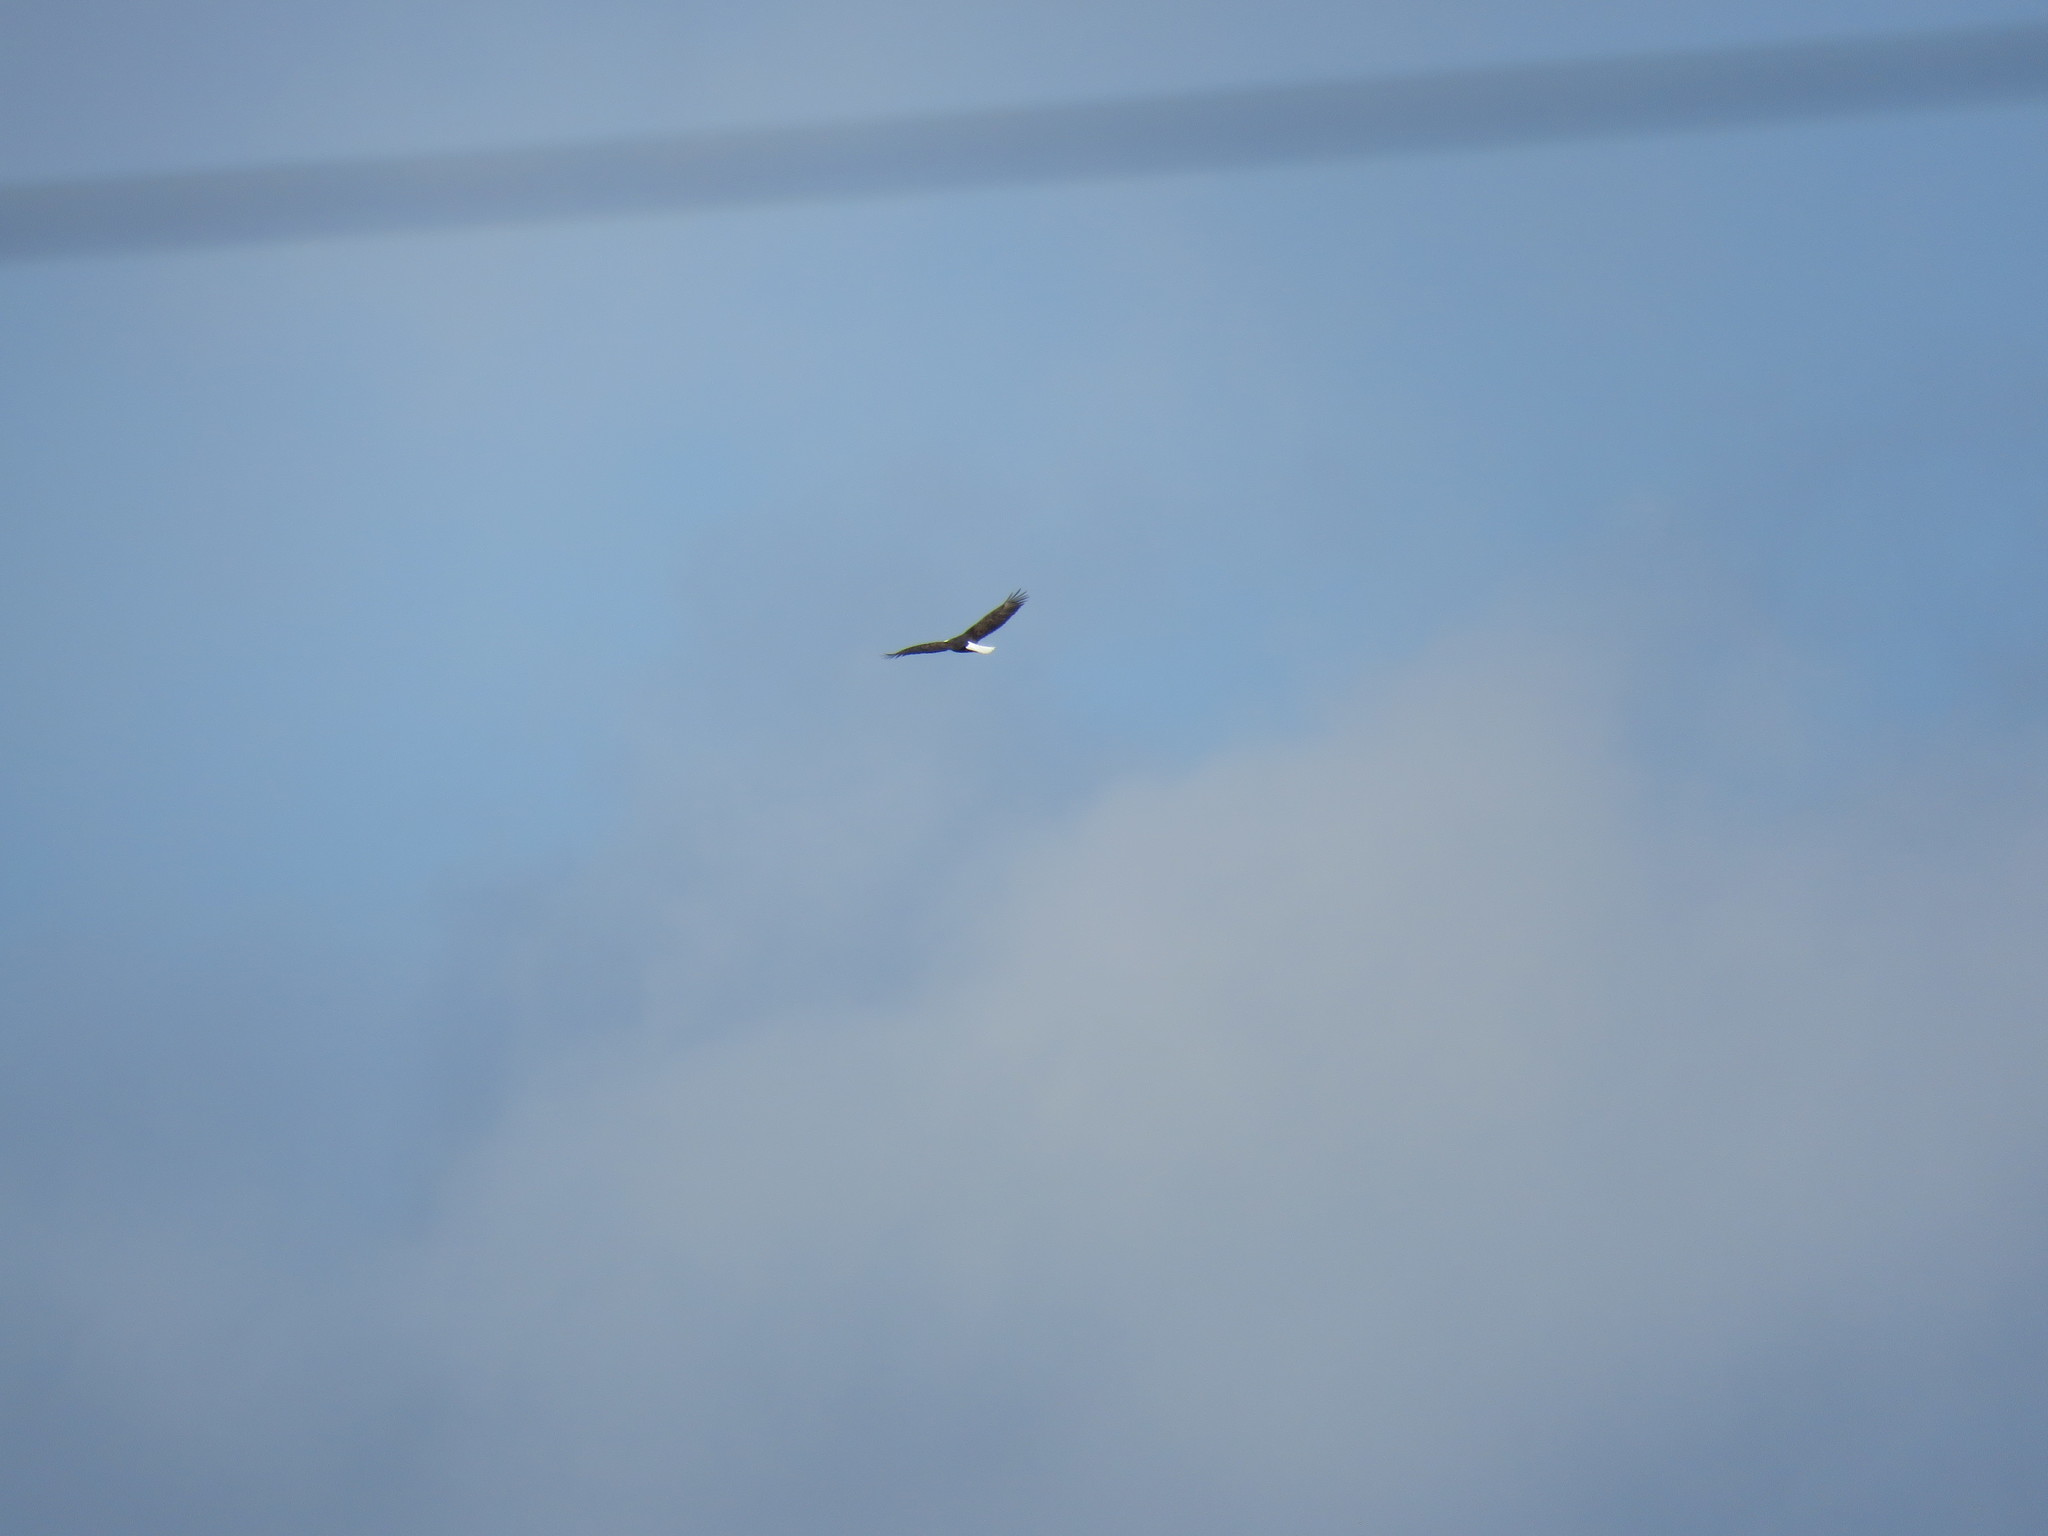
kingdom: Animalia
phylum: Chordata
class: Aves
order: Accipitriformes
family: Accipitridae
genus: Haliaeetus
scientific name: Haliaeetus leucocephalus
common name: Bald eagle
